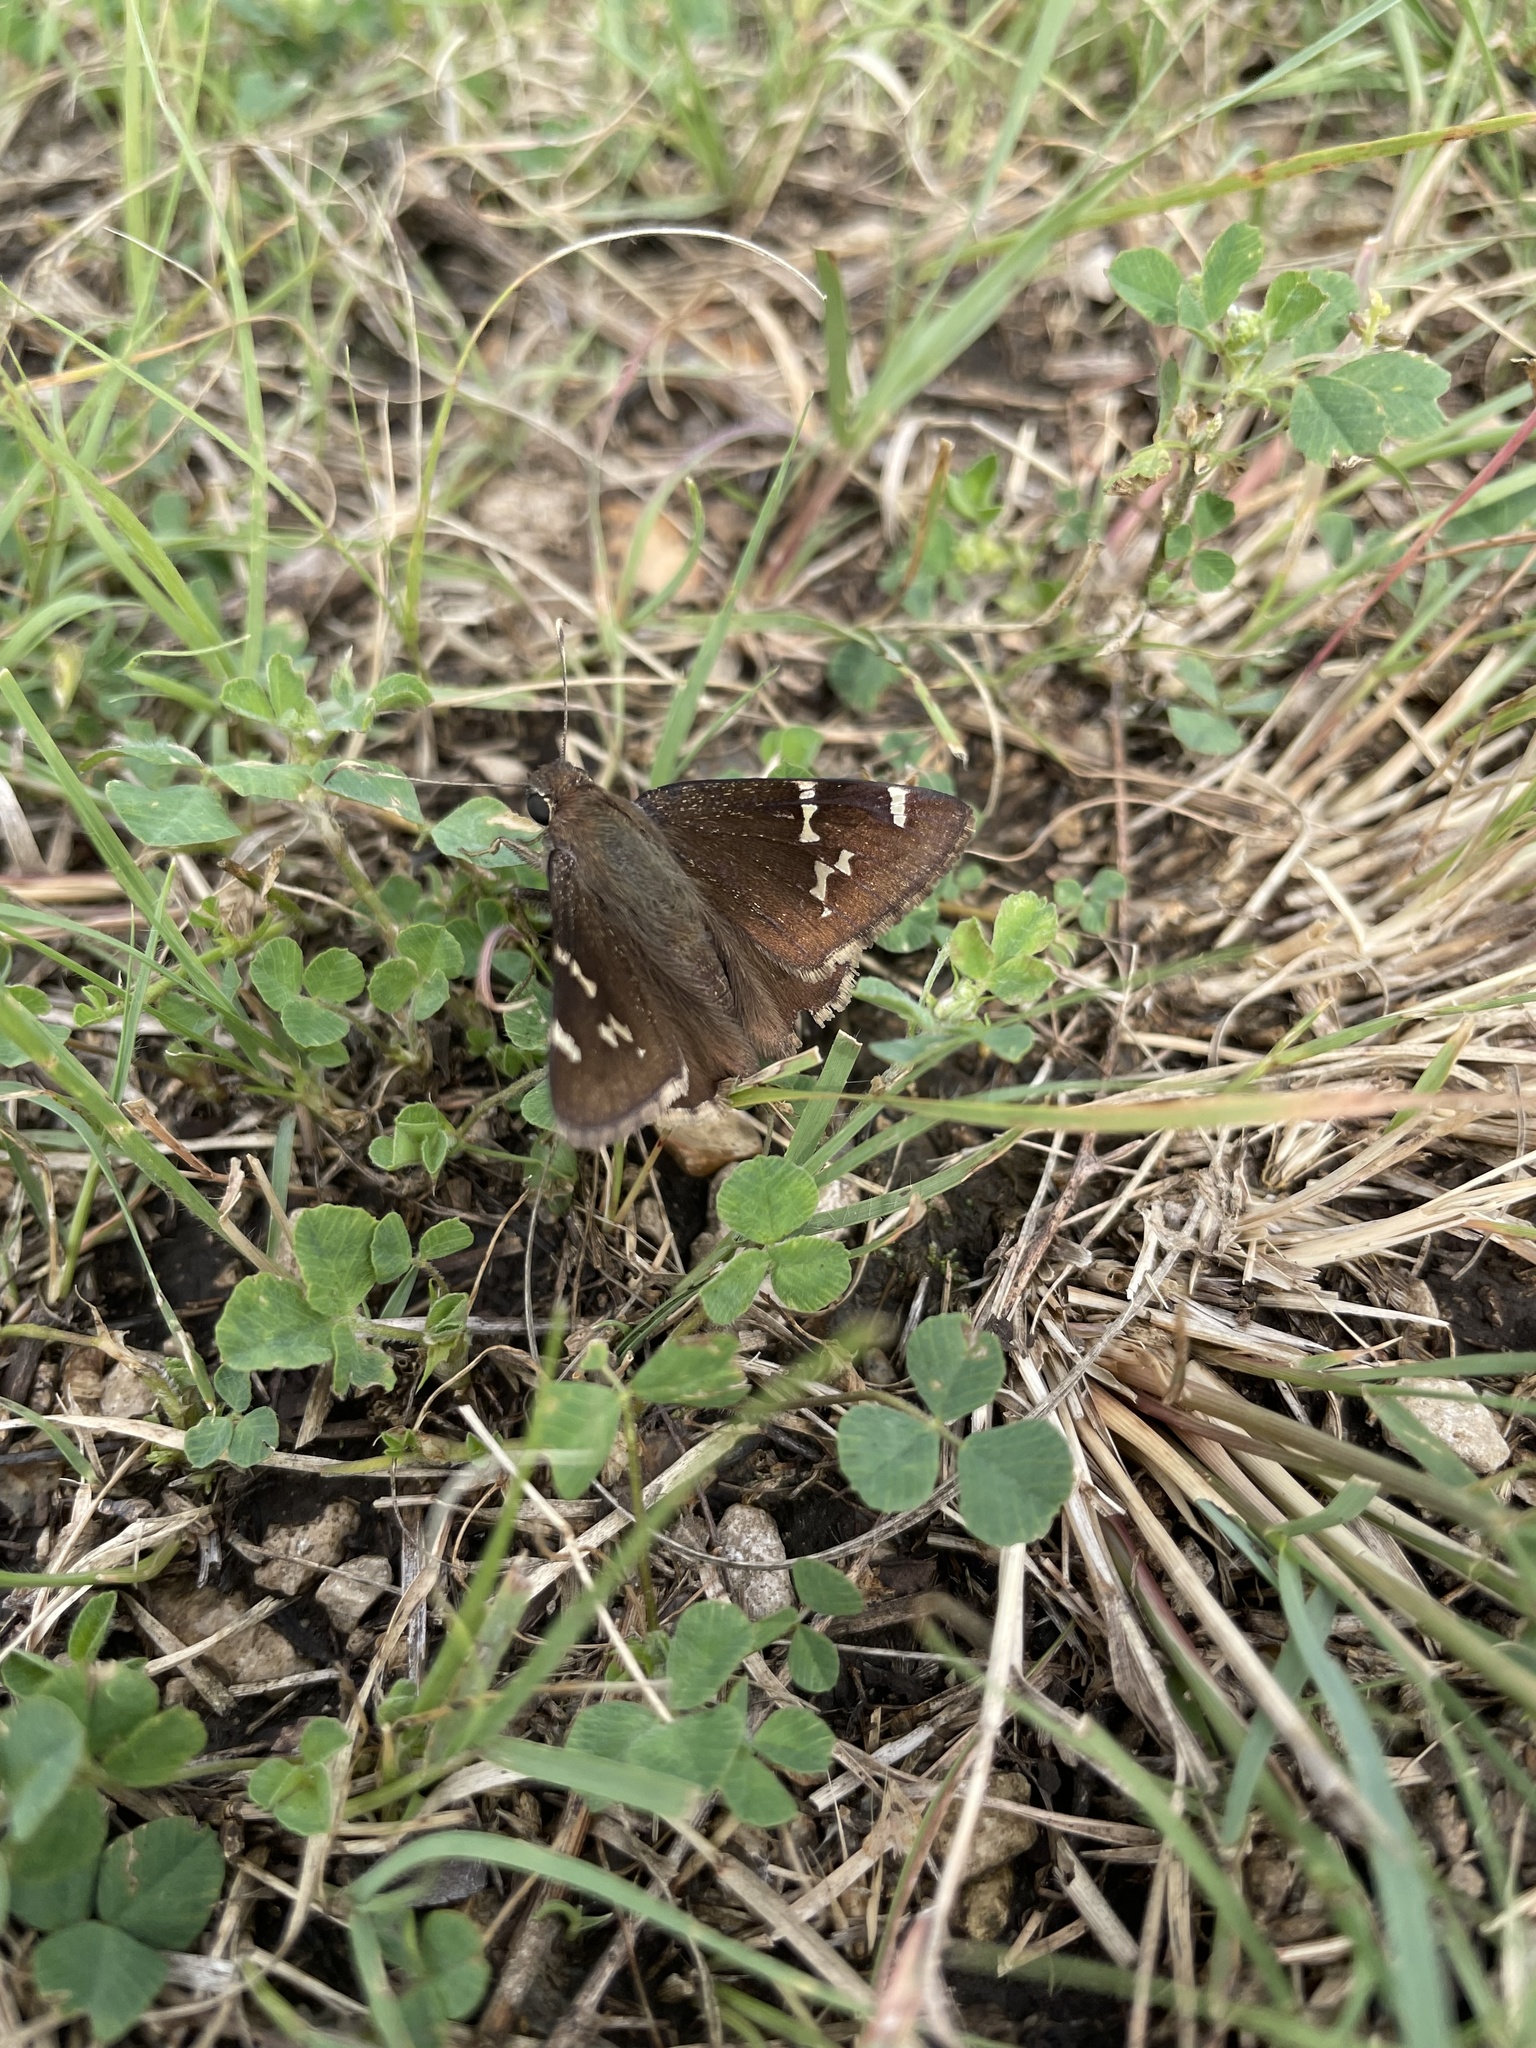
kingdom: Animalia
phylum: Arthropoda
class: Insecta
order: Lepidoptera
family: Hesperiidae
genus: Thorybes
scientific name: Thorybes daunus
